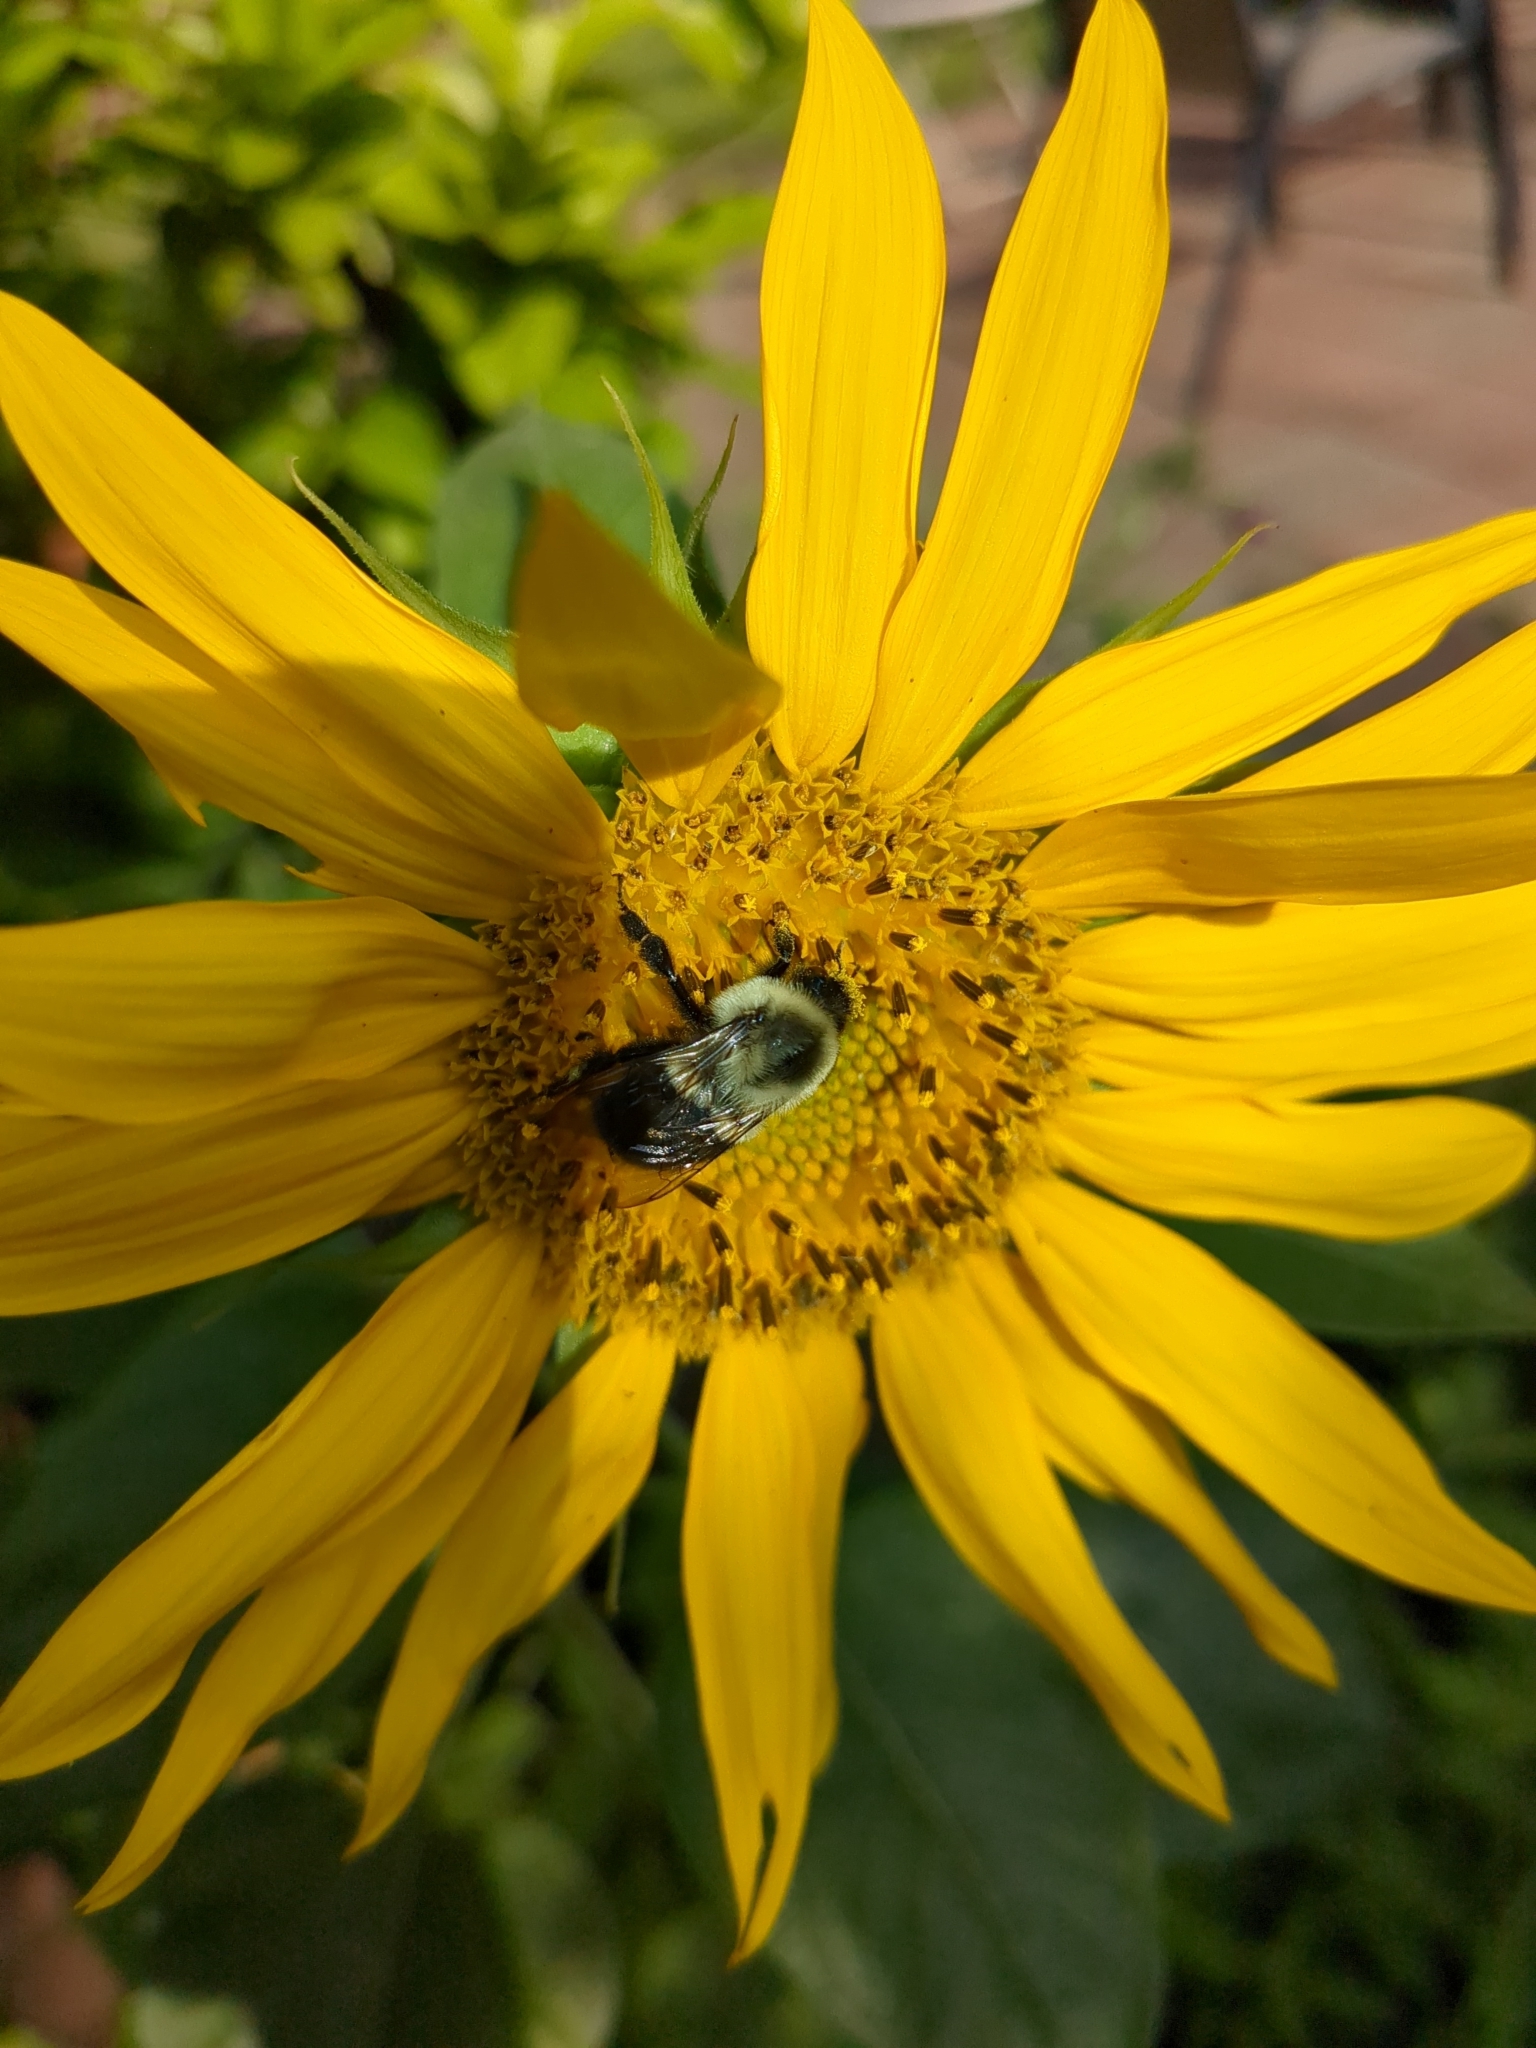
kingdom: Animalia
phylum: Arthropoda
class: Insecta
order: Hymenoptera
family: Apidae
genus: Bombus
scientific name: Bombus impatiens
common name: Common eastern bumble bee
